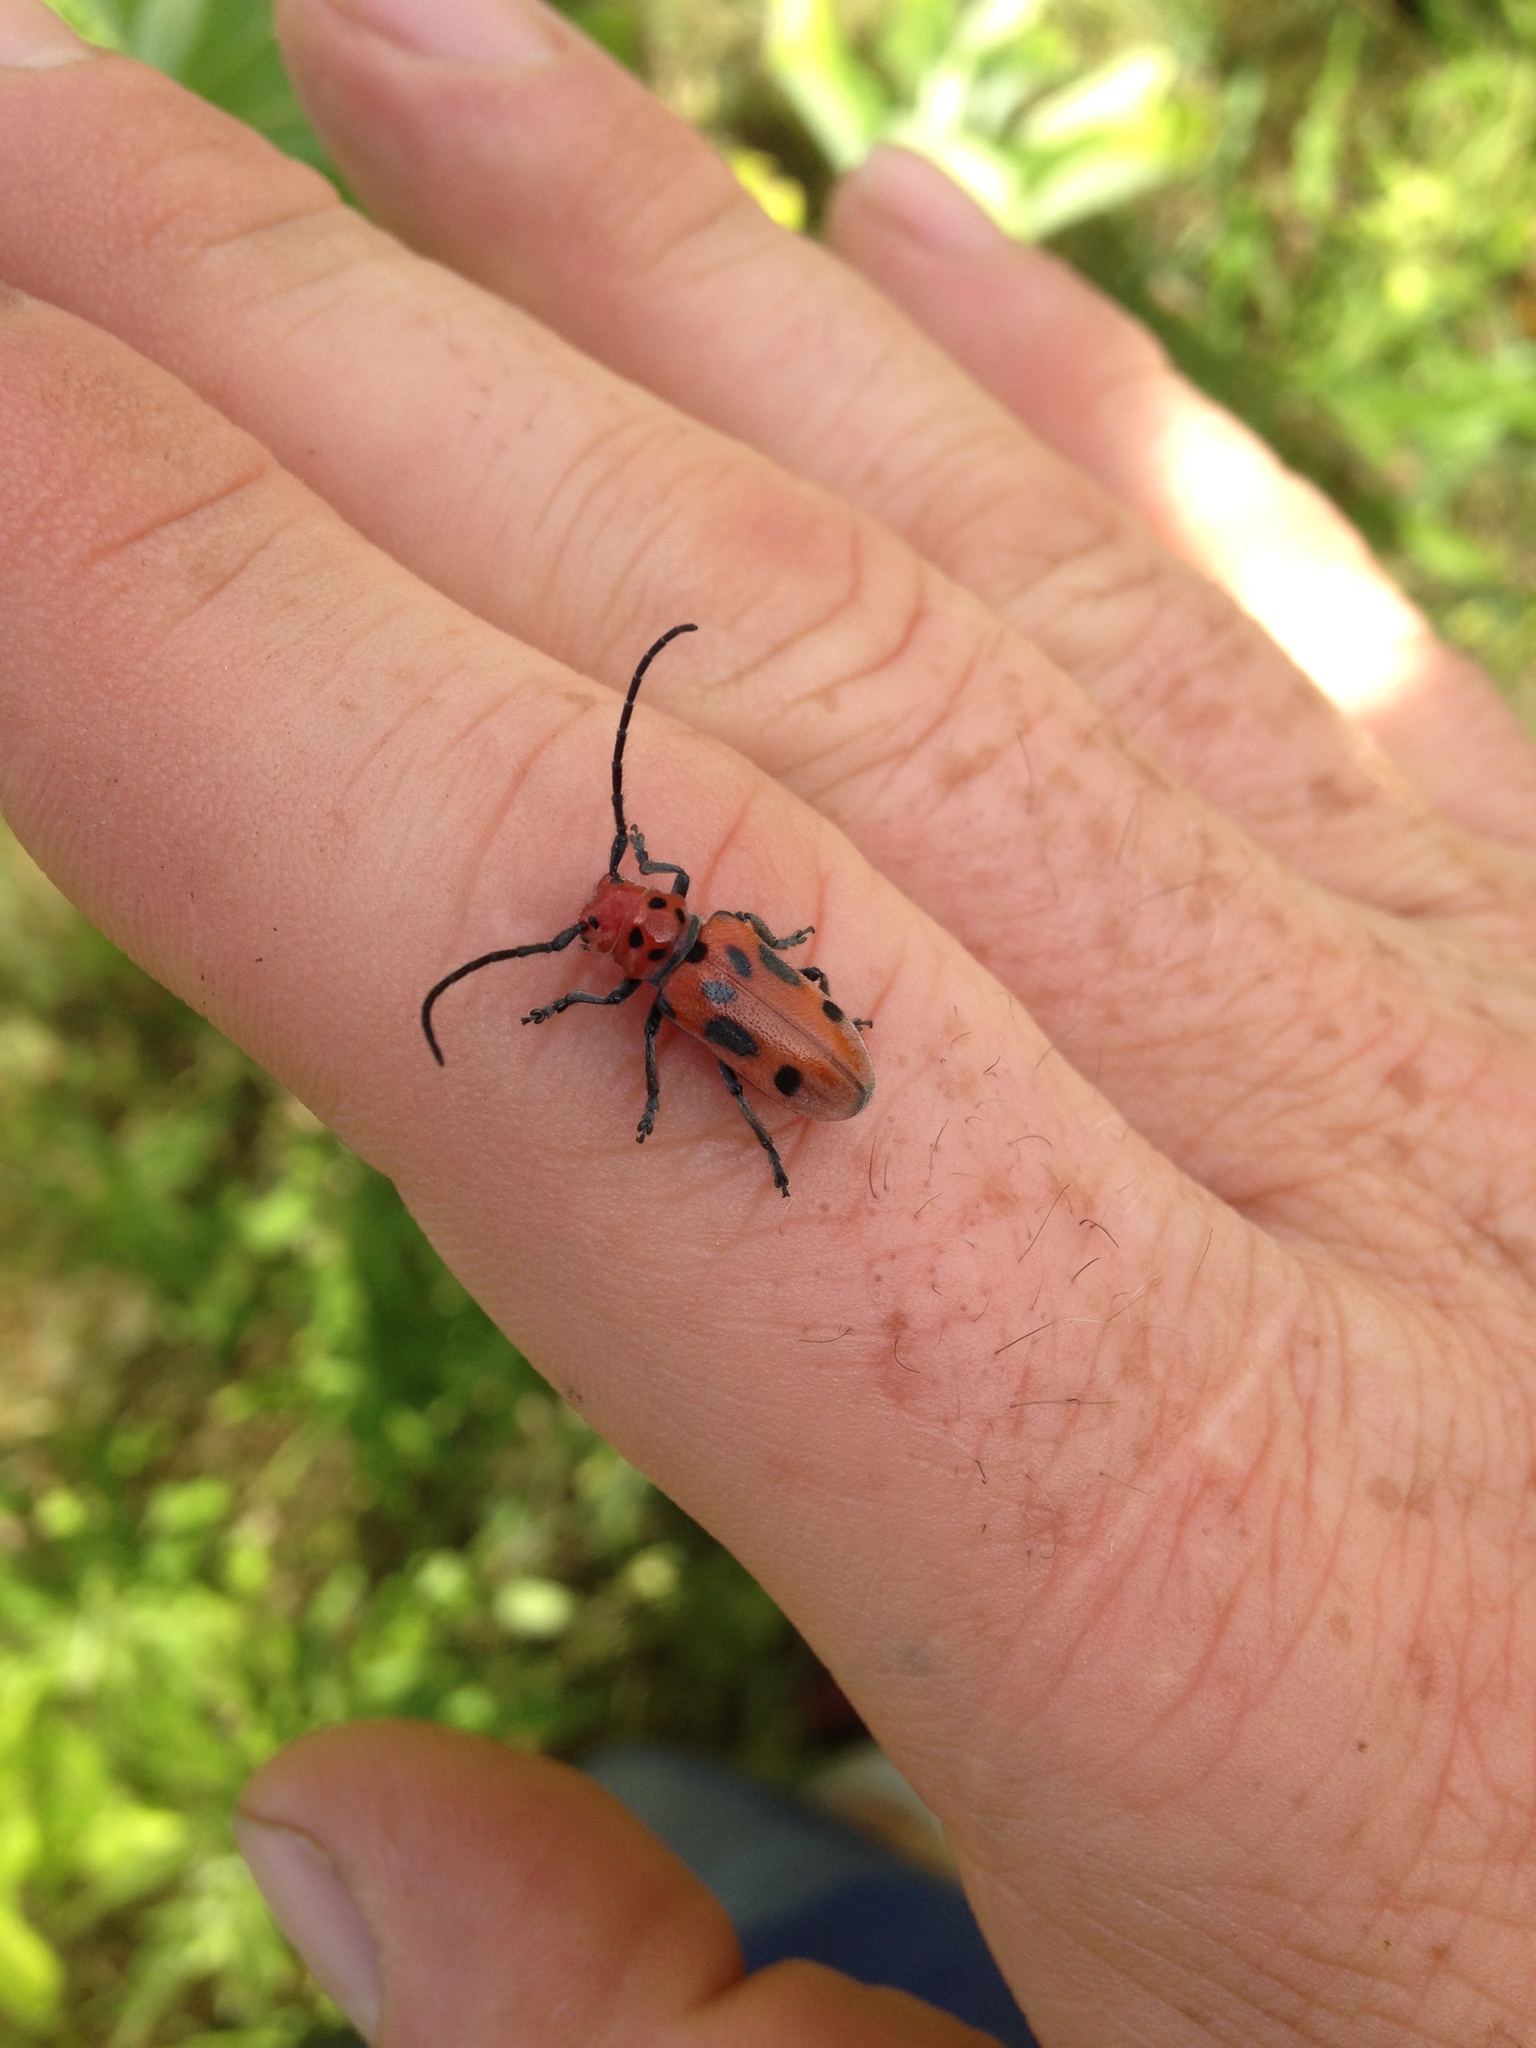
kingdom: Animalia
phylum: Arthropoda
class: Insecta
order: Coleoptera
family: Cerambycidae
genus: Tetraopes
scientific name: Tetraopes tetrophthalmus
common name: Red milkweed beetle
